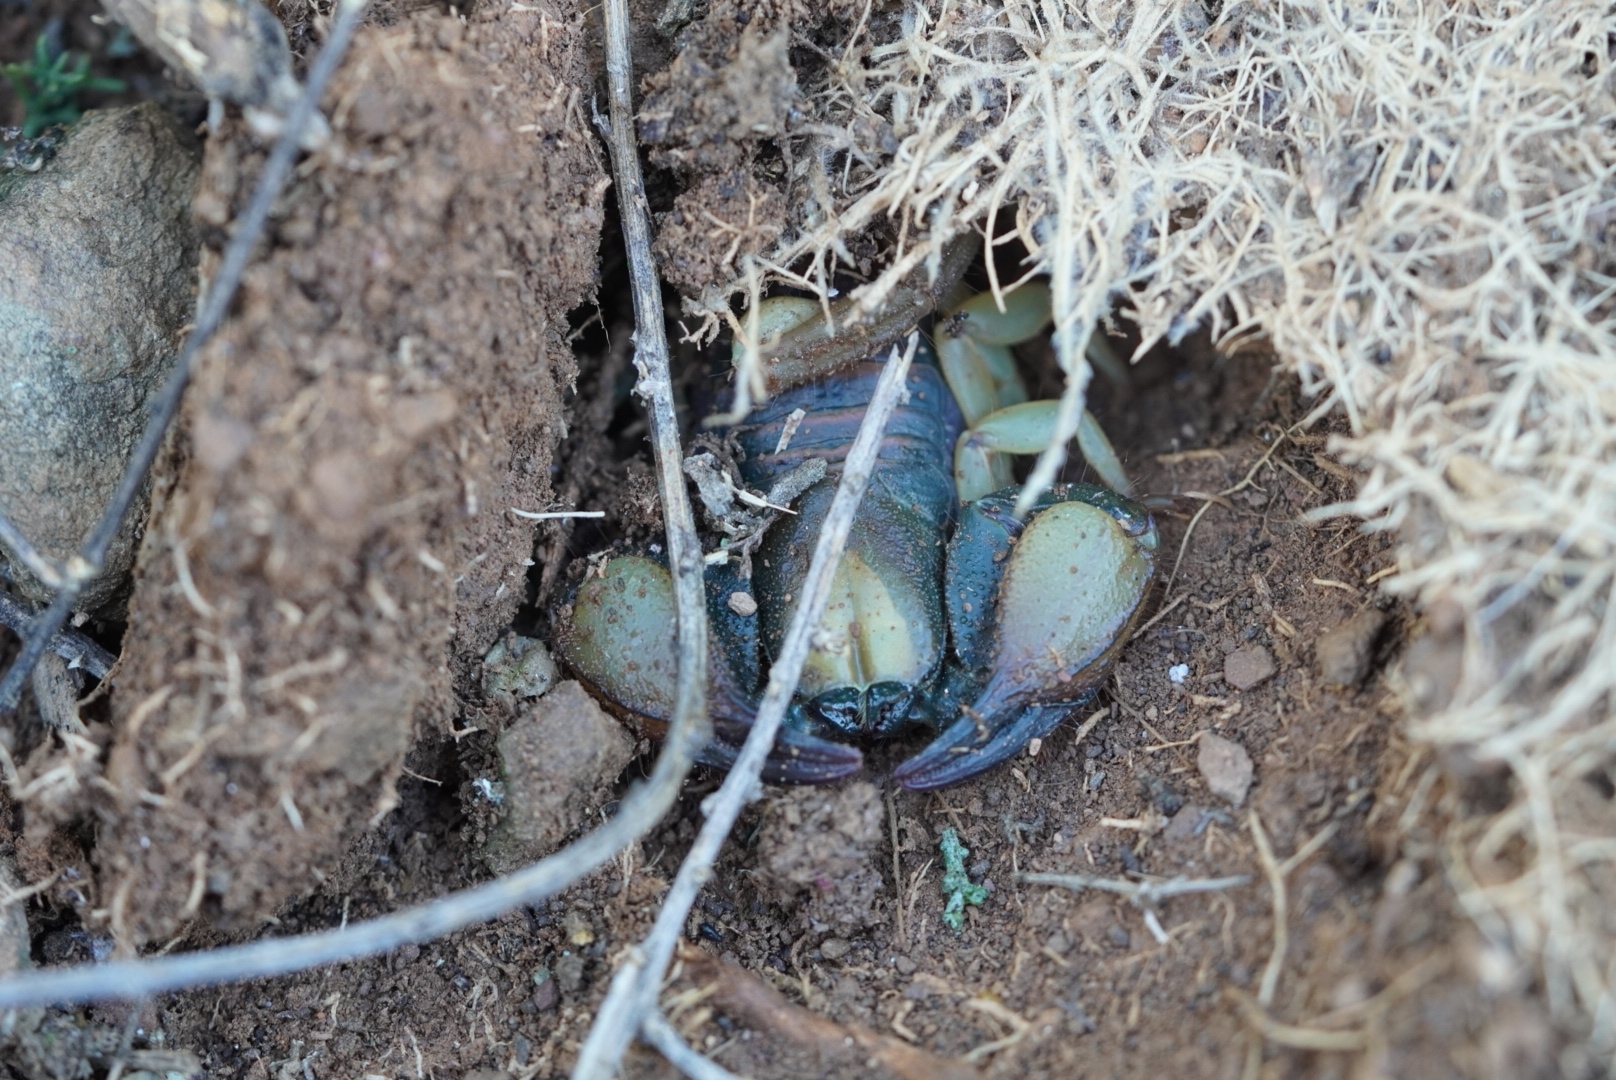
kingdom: Animalia
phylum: Arthropoda
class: Arachnida
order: Scorpiones
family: Scorpionidae
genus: Opistophthalmus
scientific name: Opistophthalmus karrooensis
